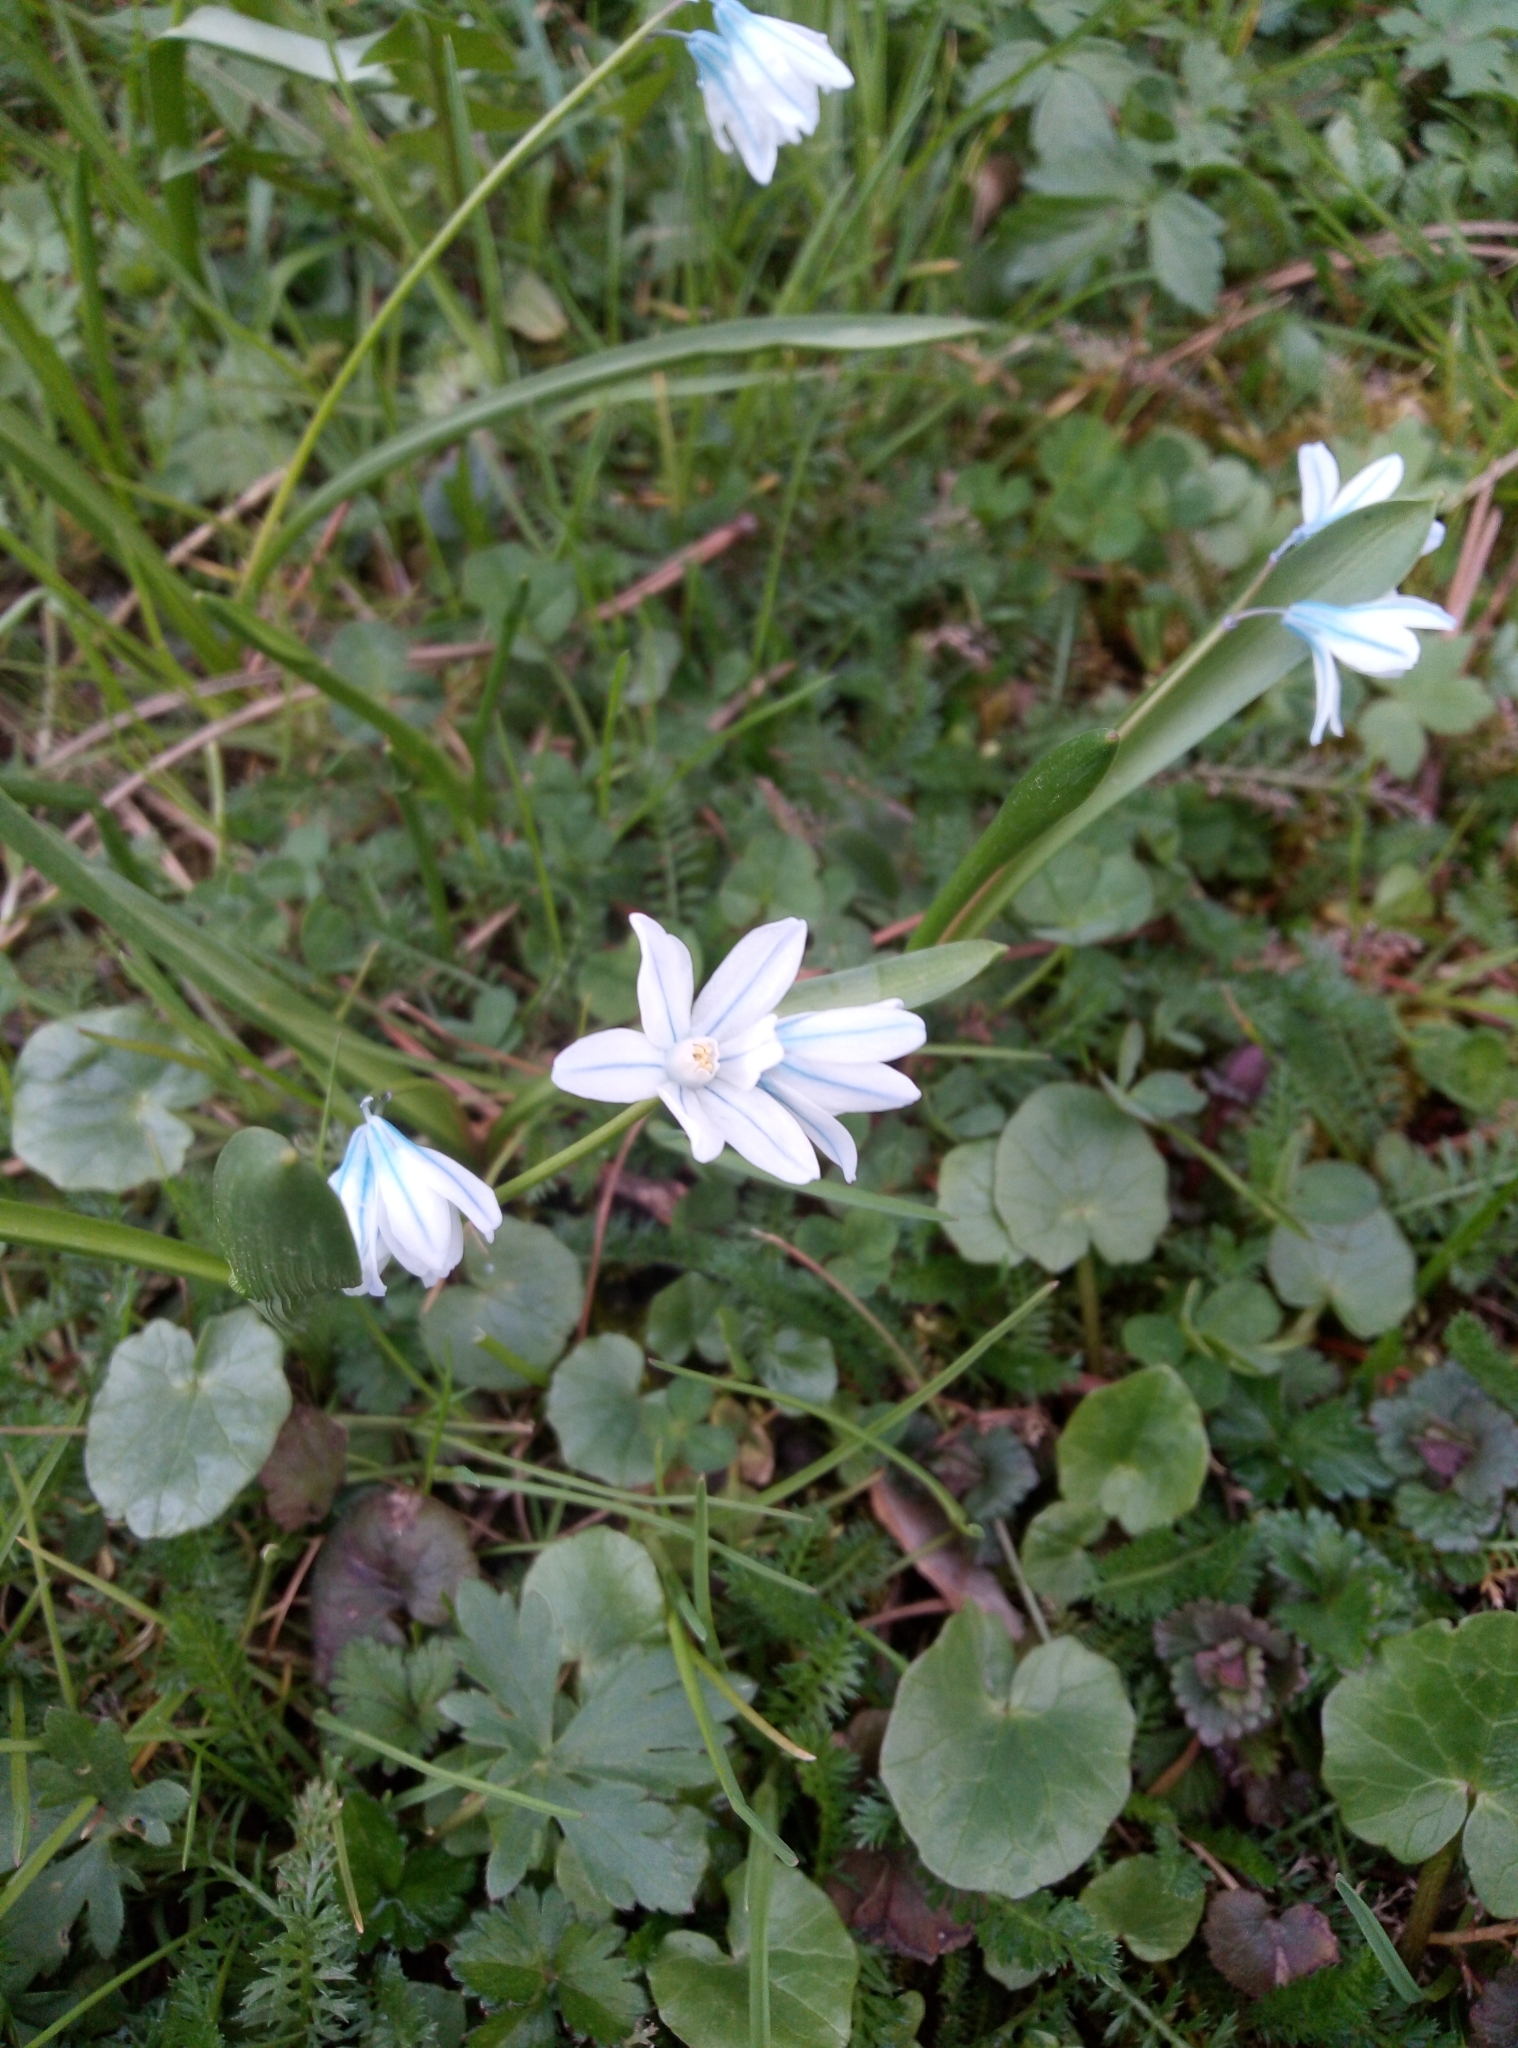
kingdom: Plantae
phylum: Tracheophyta
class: Liliopsida
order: Asparagales
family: Asparagaceae
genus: Puschkinia
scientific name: Puschkinia scilloides
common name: Striped squill
